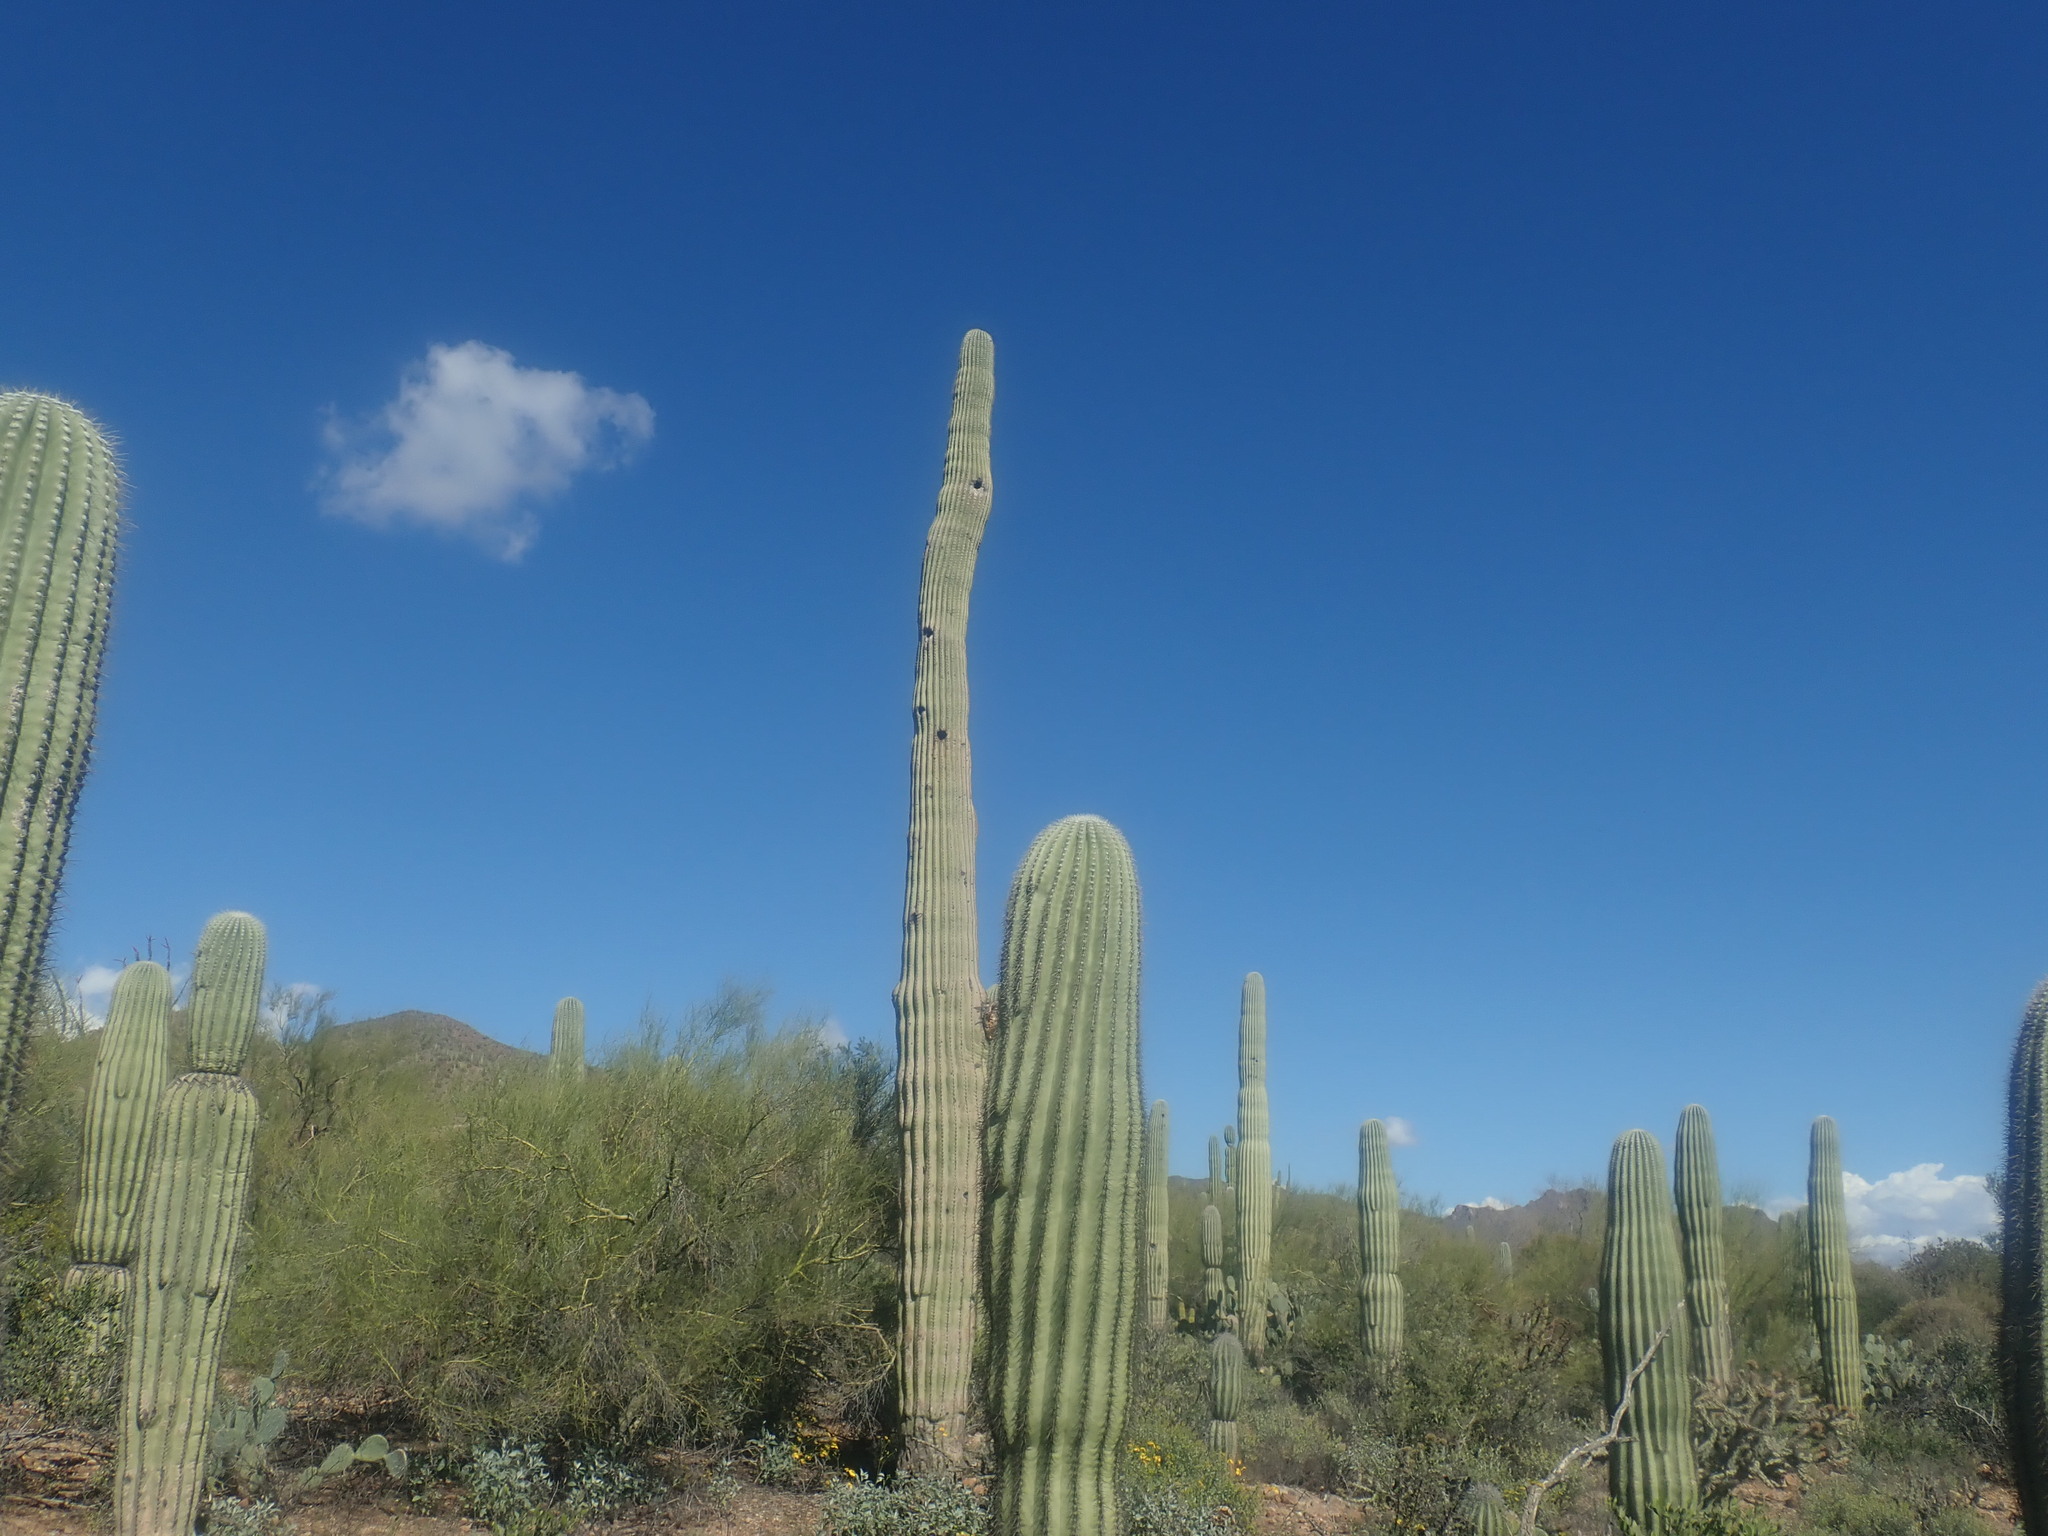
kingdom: Plantae
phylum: Tracheophyta
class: Magnoliopsida
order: Caryophyllales
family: Cactaceae
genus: Carnegiea
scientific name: Carnegiea gigantea
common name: Saguaro
